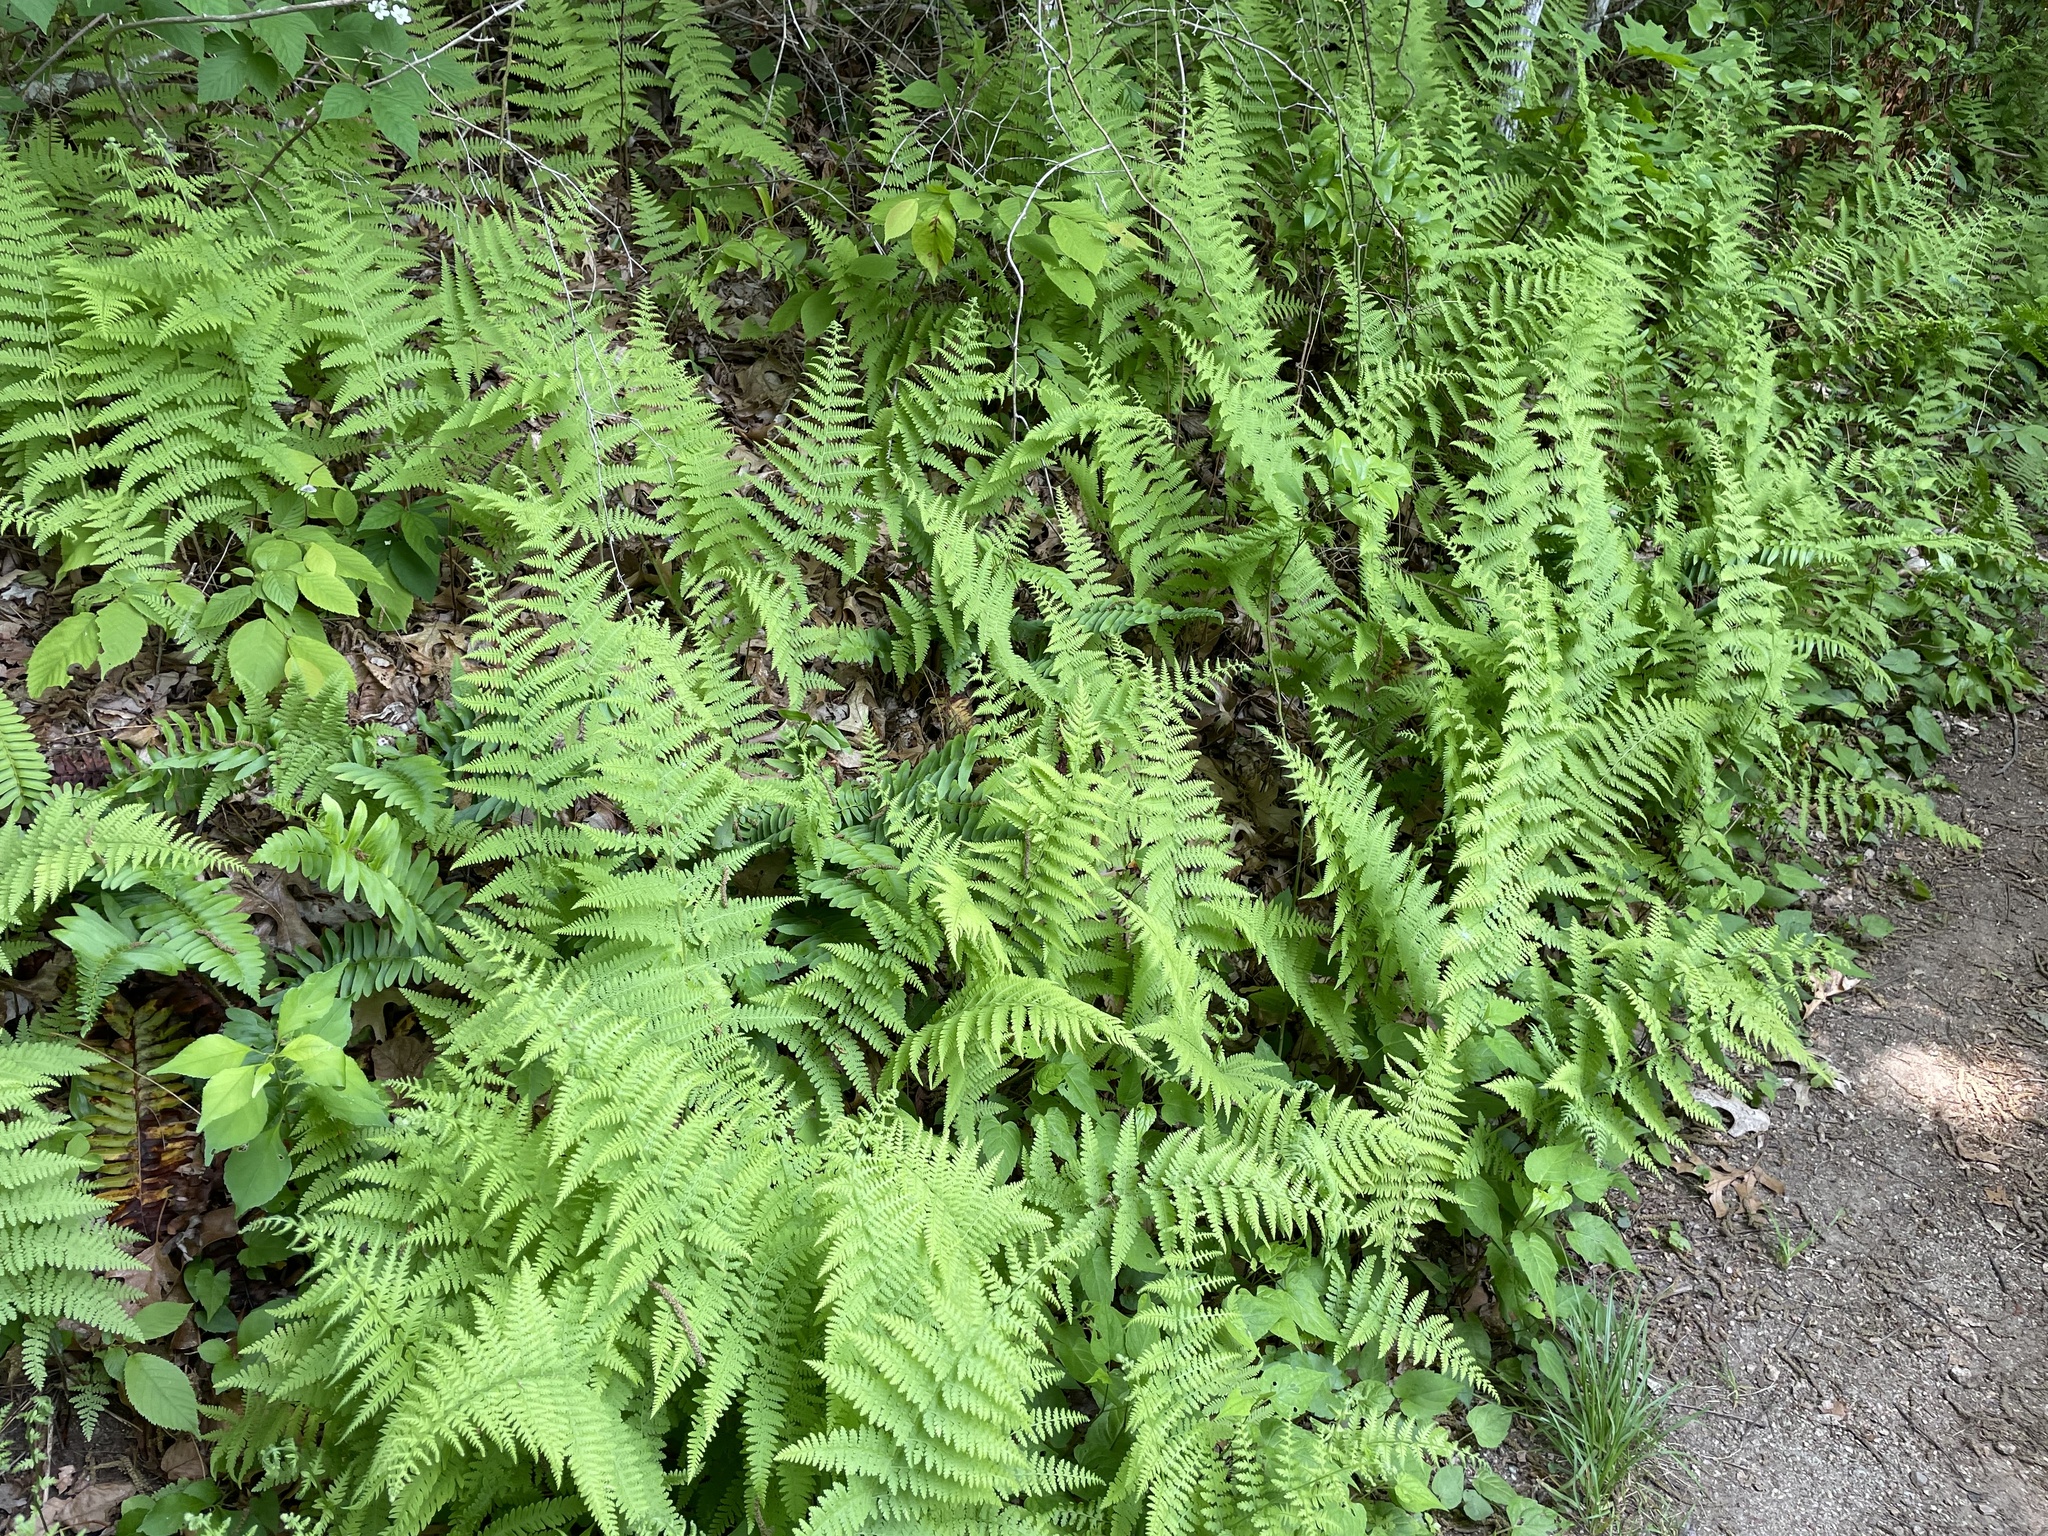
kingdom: Plantae
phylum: Tracheophyta
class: Polypodiopsida
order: Polypodiales
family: Dennstaedtiaceae
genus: Sitobolium
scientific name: Sitobolium punctilobum
